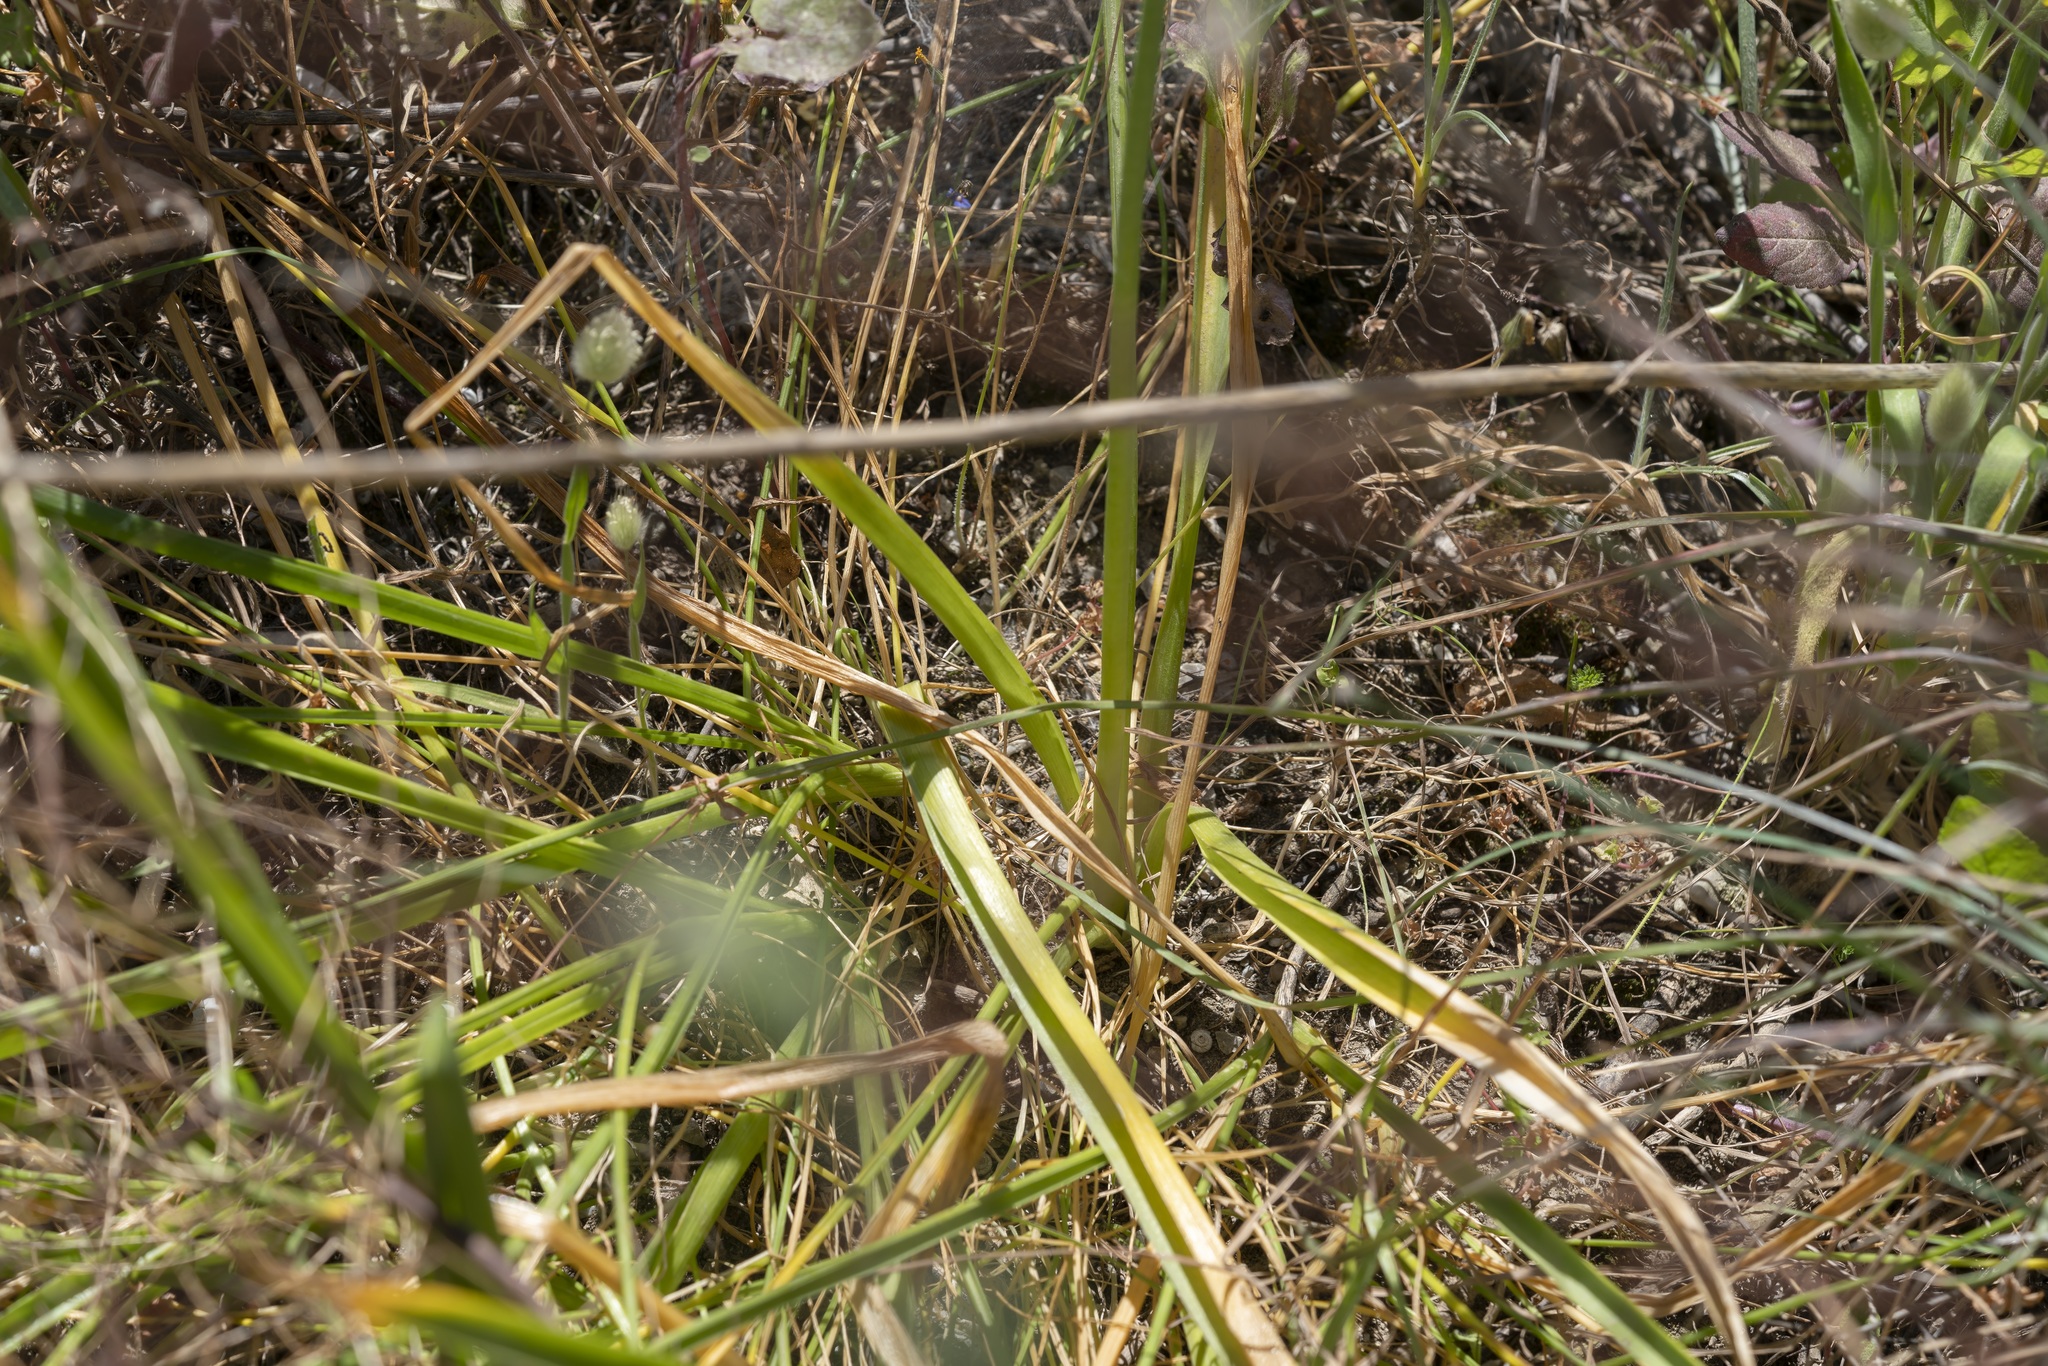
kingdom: Plantae
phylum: Tracheophyta
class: Liliopsida
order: Asparagales
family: Asparagaceae
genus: Ornithogalum
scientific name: Ornithogalum arabicum
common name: Arabian starflower
